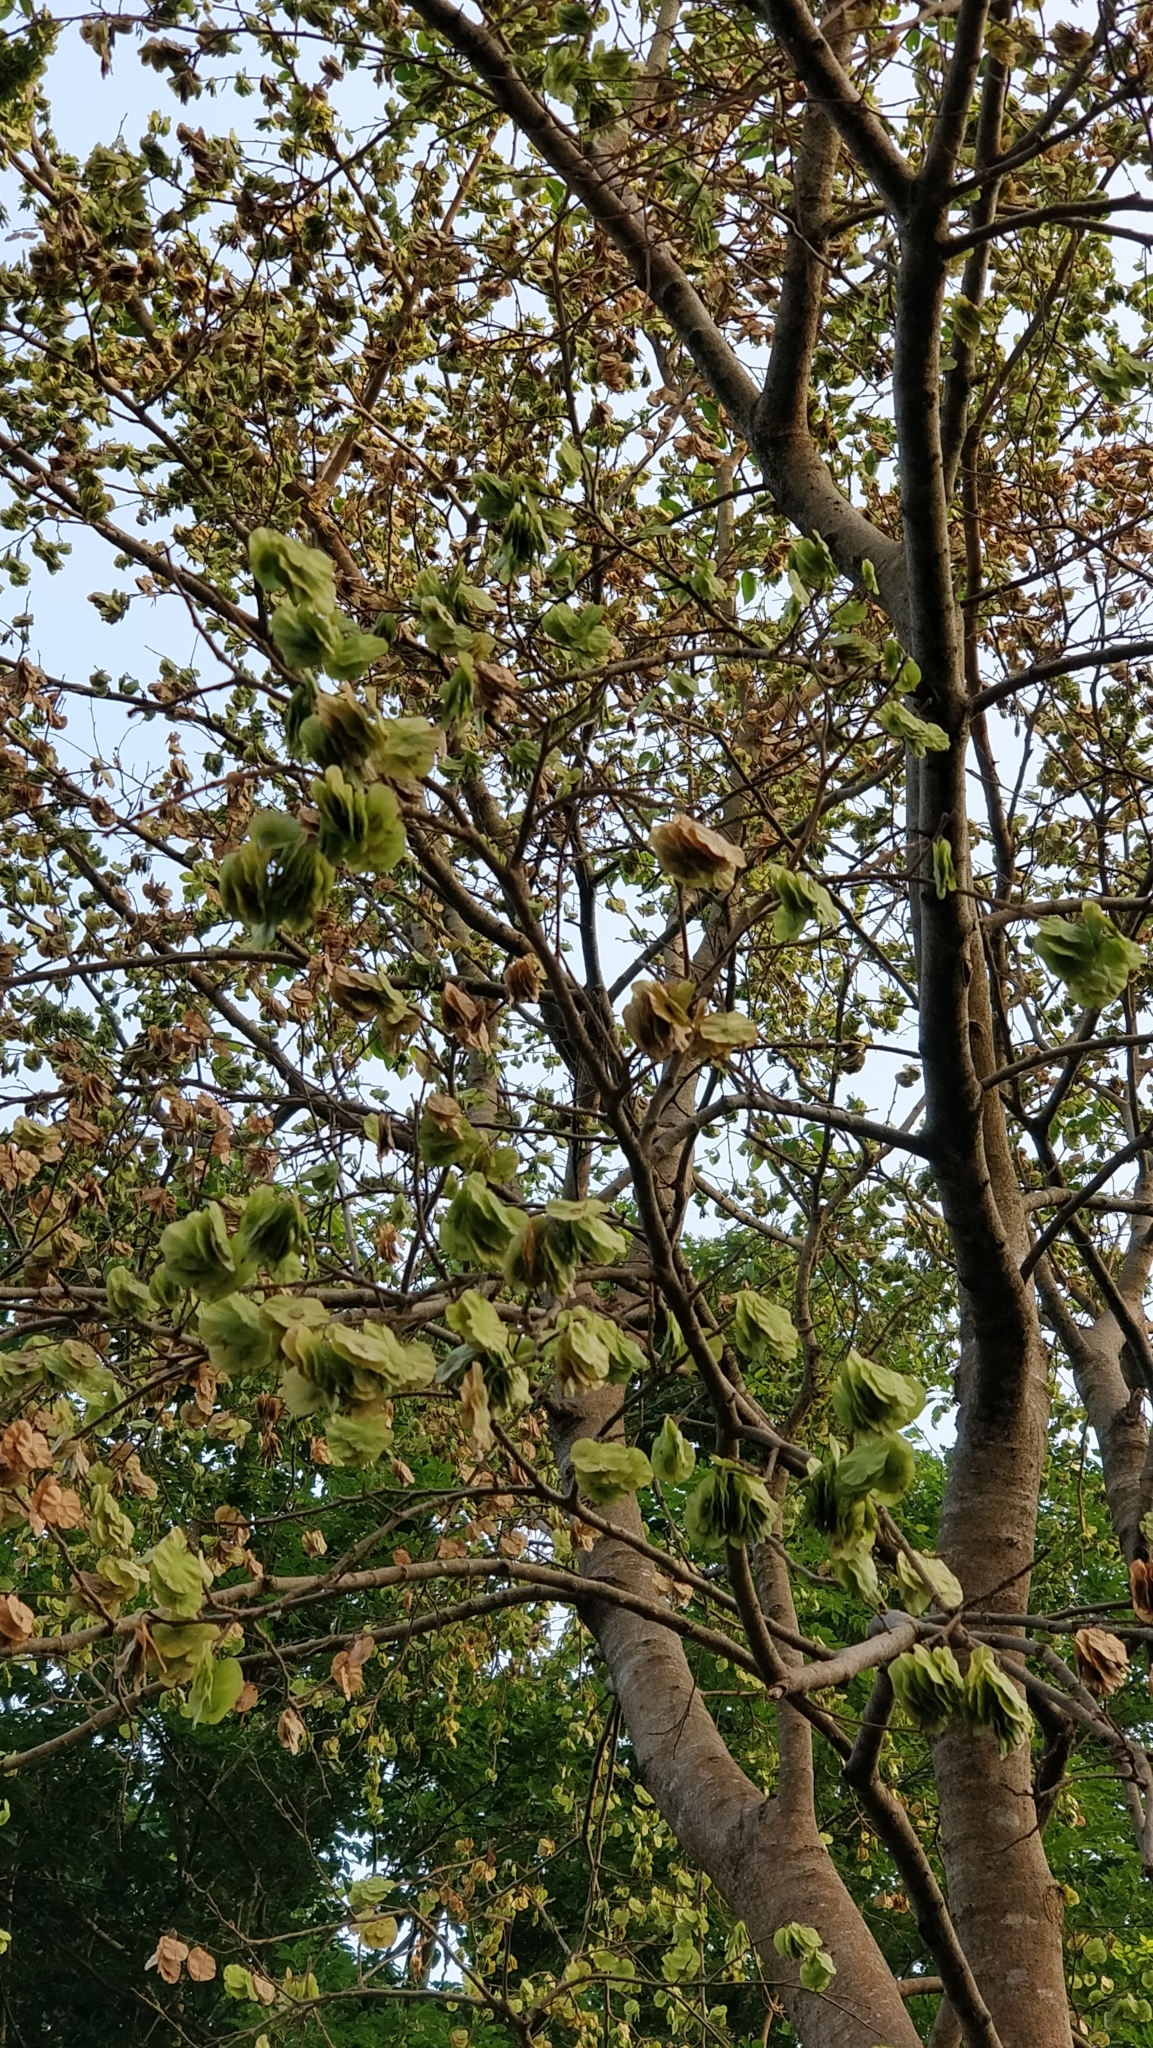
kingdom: Plantae
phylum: Tracheophyta
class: Magnoliopsida
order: Rosales
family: Ulmaceae
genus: Holoptelea
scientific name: Holoptelea integrifolia
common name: Indian-elm
